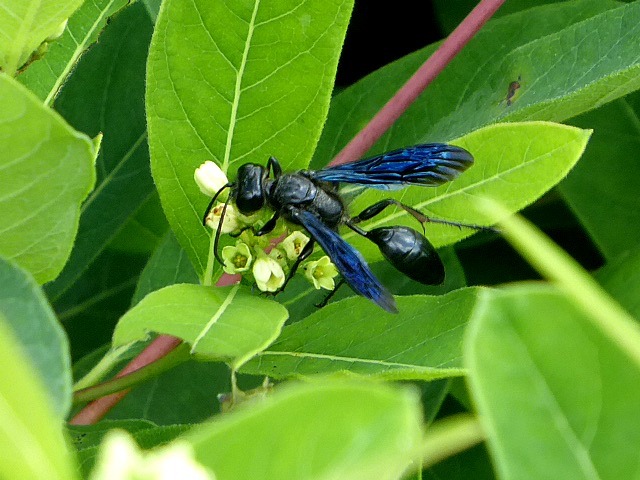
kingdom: Animalia
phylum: Arthropoda
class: Insecta
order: Hymenoptera
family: Sphecidae
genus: Isodontia
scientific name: Isodontia philadelphica
